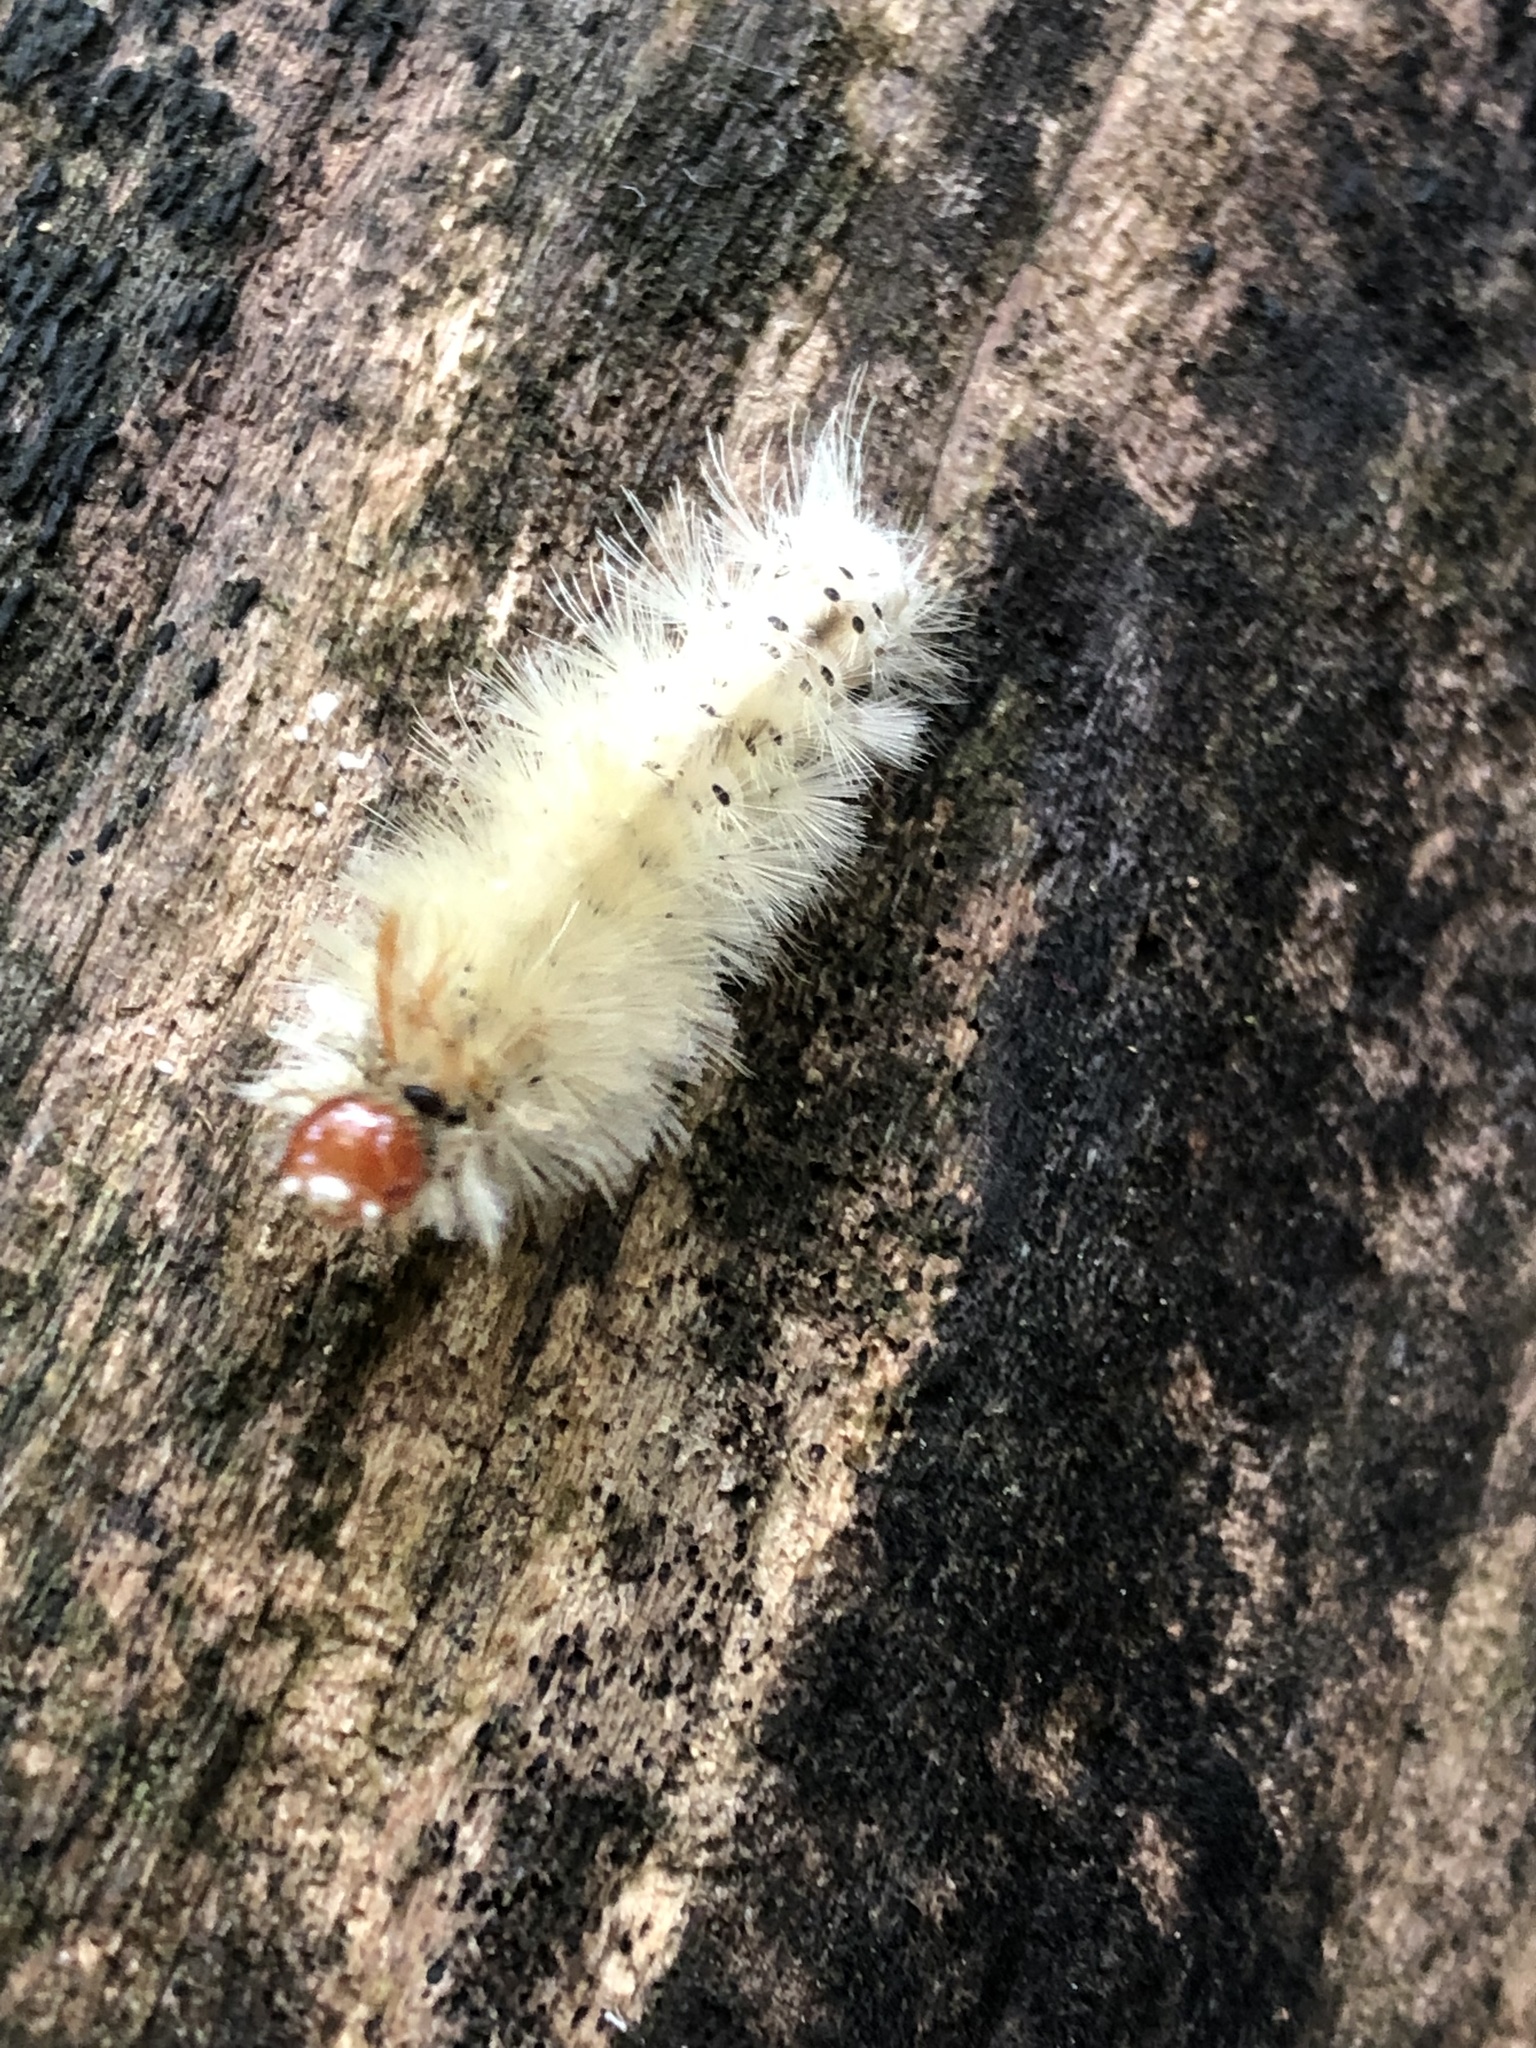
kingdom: Animalia
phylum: Arthropoda
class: Insecta
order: Lepidoptera
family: Erebidae
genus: Halysidota
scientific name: Halysidota harrisii
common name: Sycamore tussock moth
